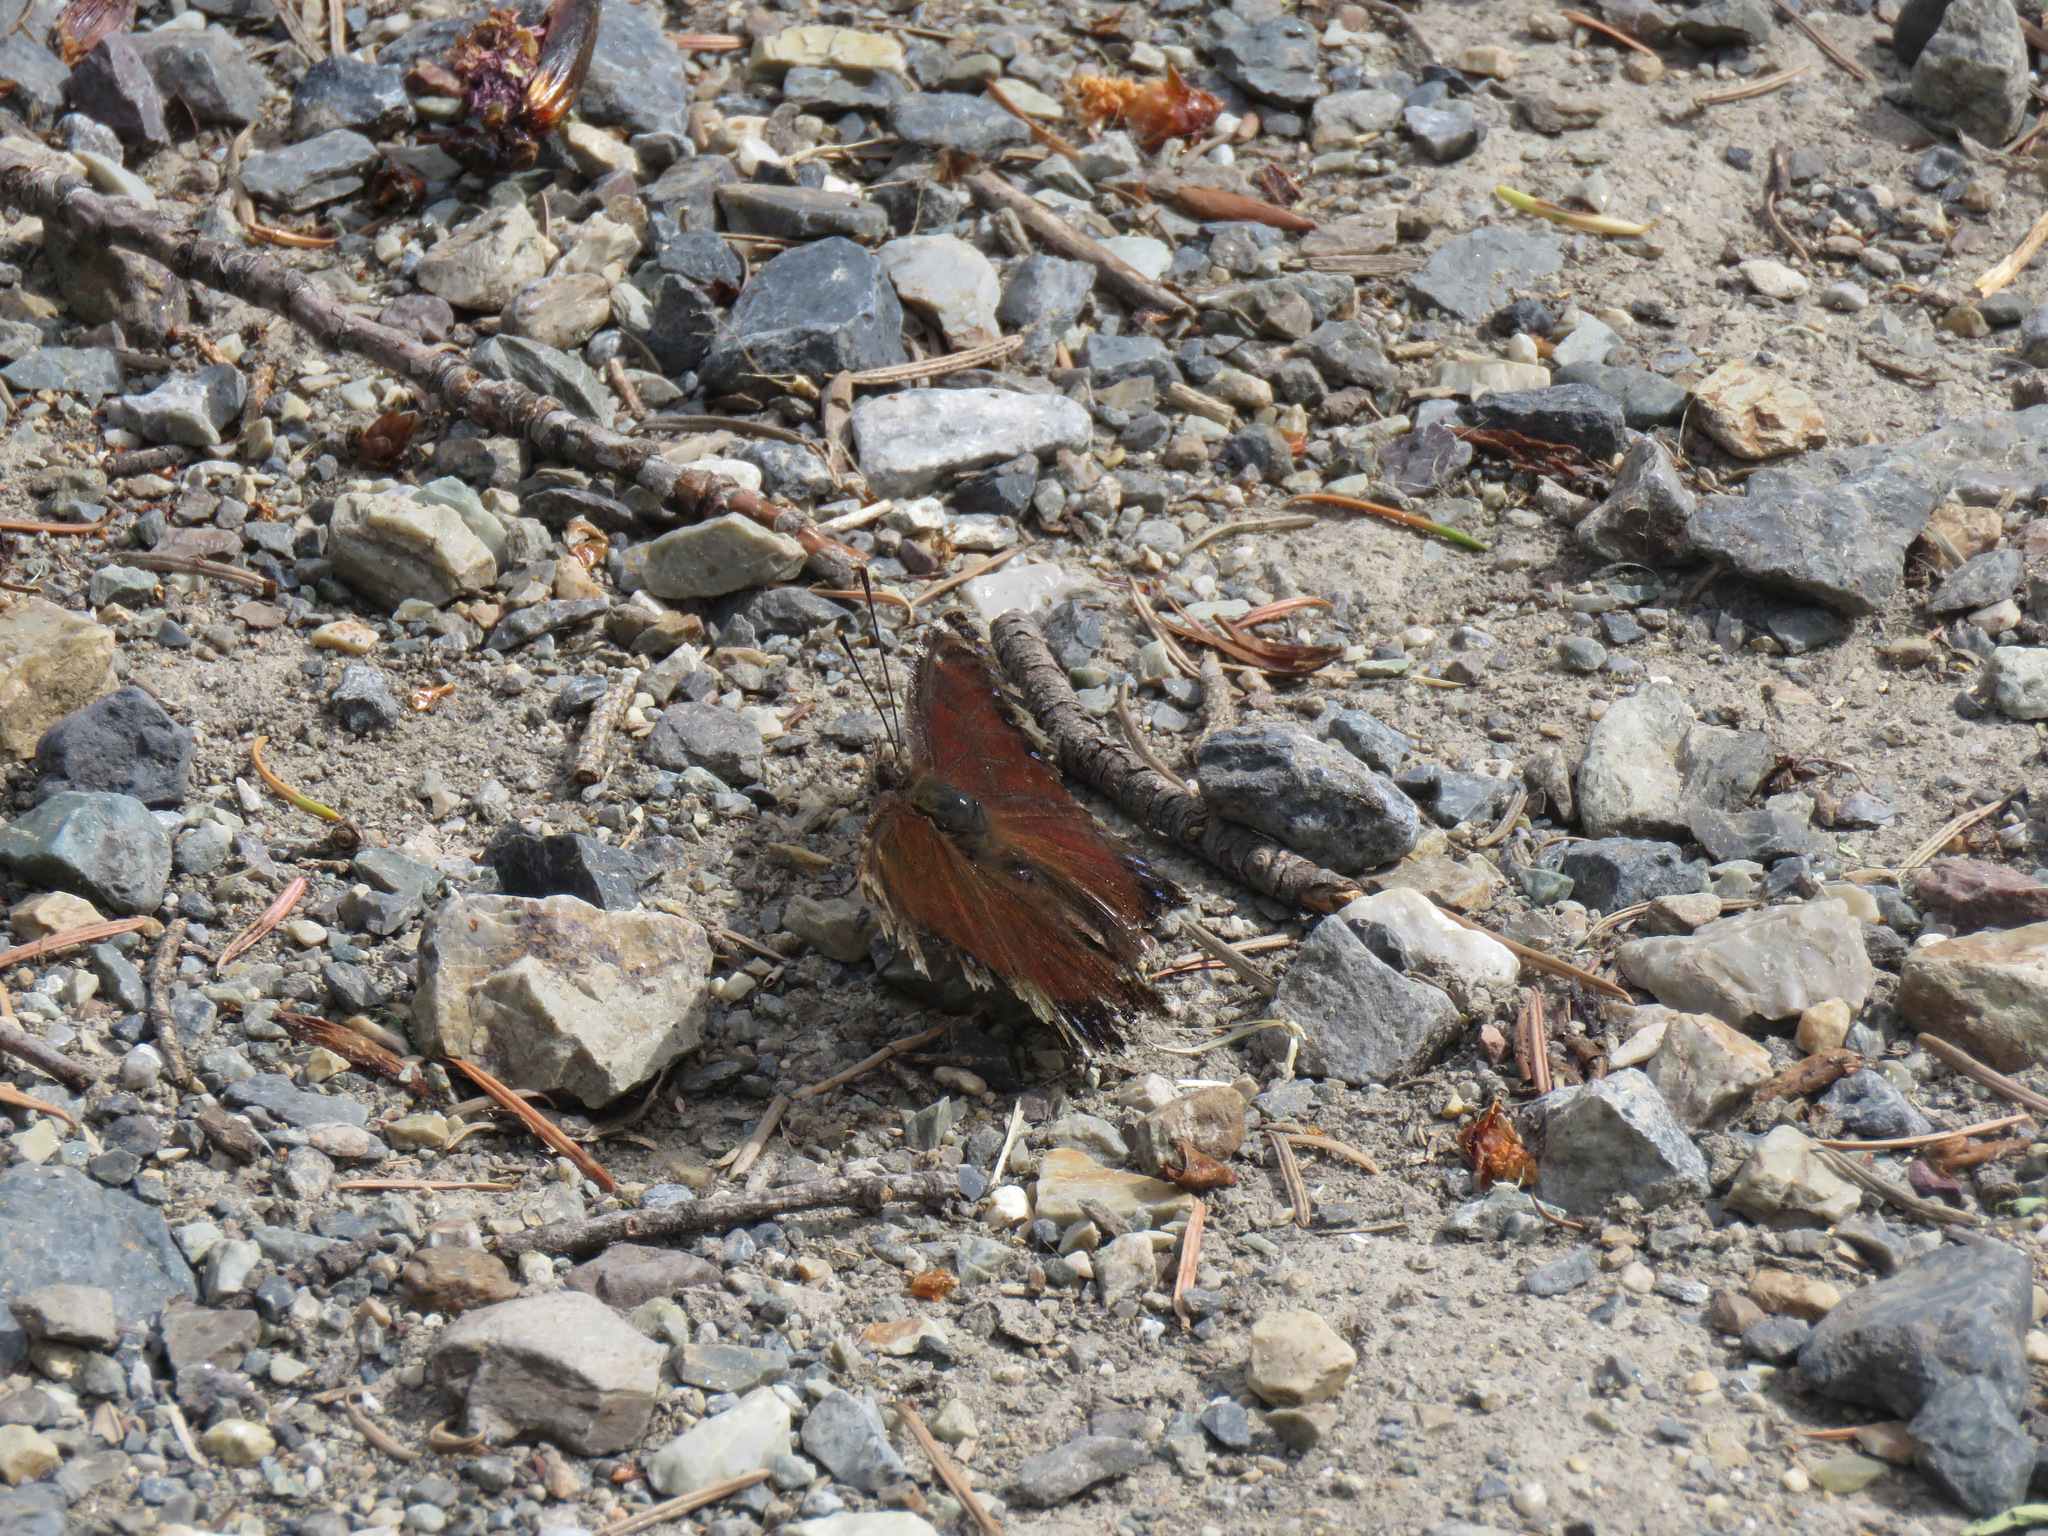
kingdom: Animalia
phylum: Arthropoda
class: Insecta
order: Lepidoptera
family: Nymphalidae
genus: Nymphalis
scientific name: Nymphalis antiopa
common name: Camberwell beauty
